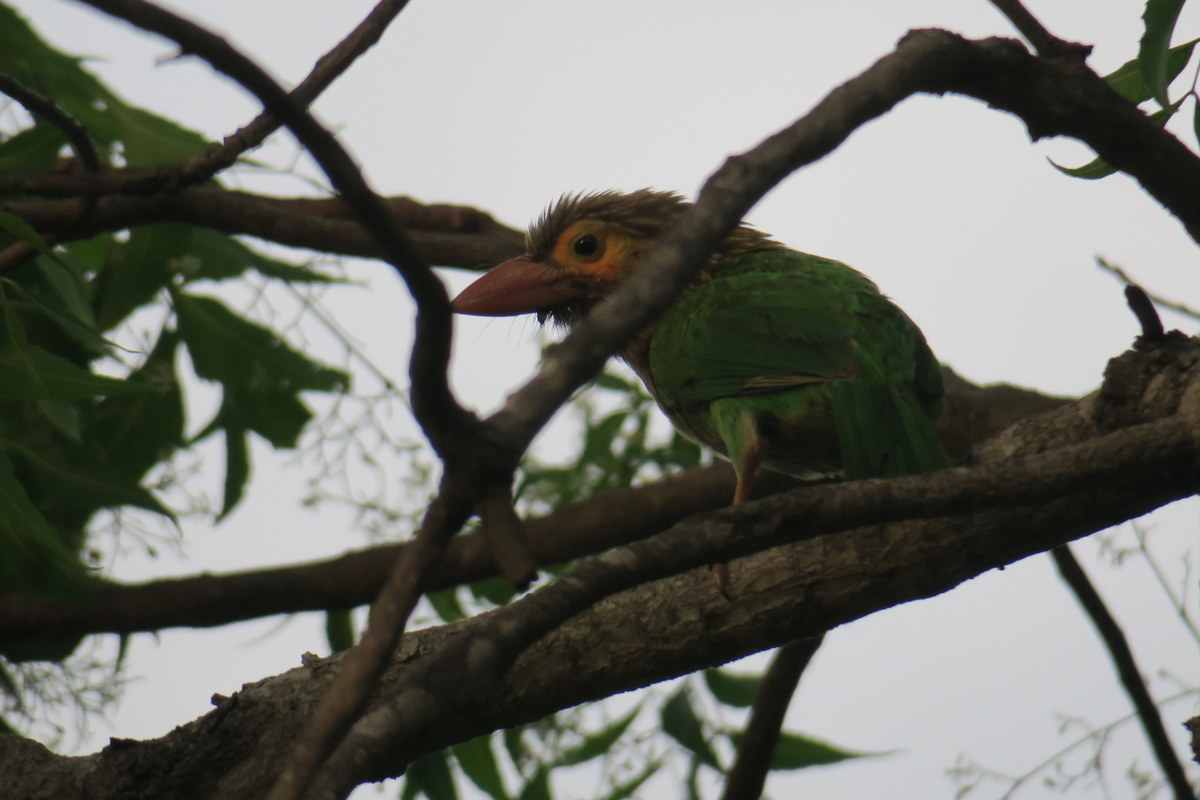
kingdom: Animalia
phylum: Chordata
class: Aves
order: Piciformes
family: Megalaimidae
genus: Psilopogon
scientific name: Psilopogon zeylanicus
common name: Brown-headed barbet
